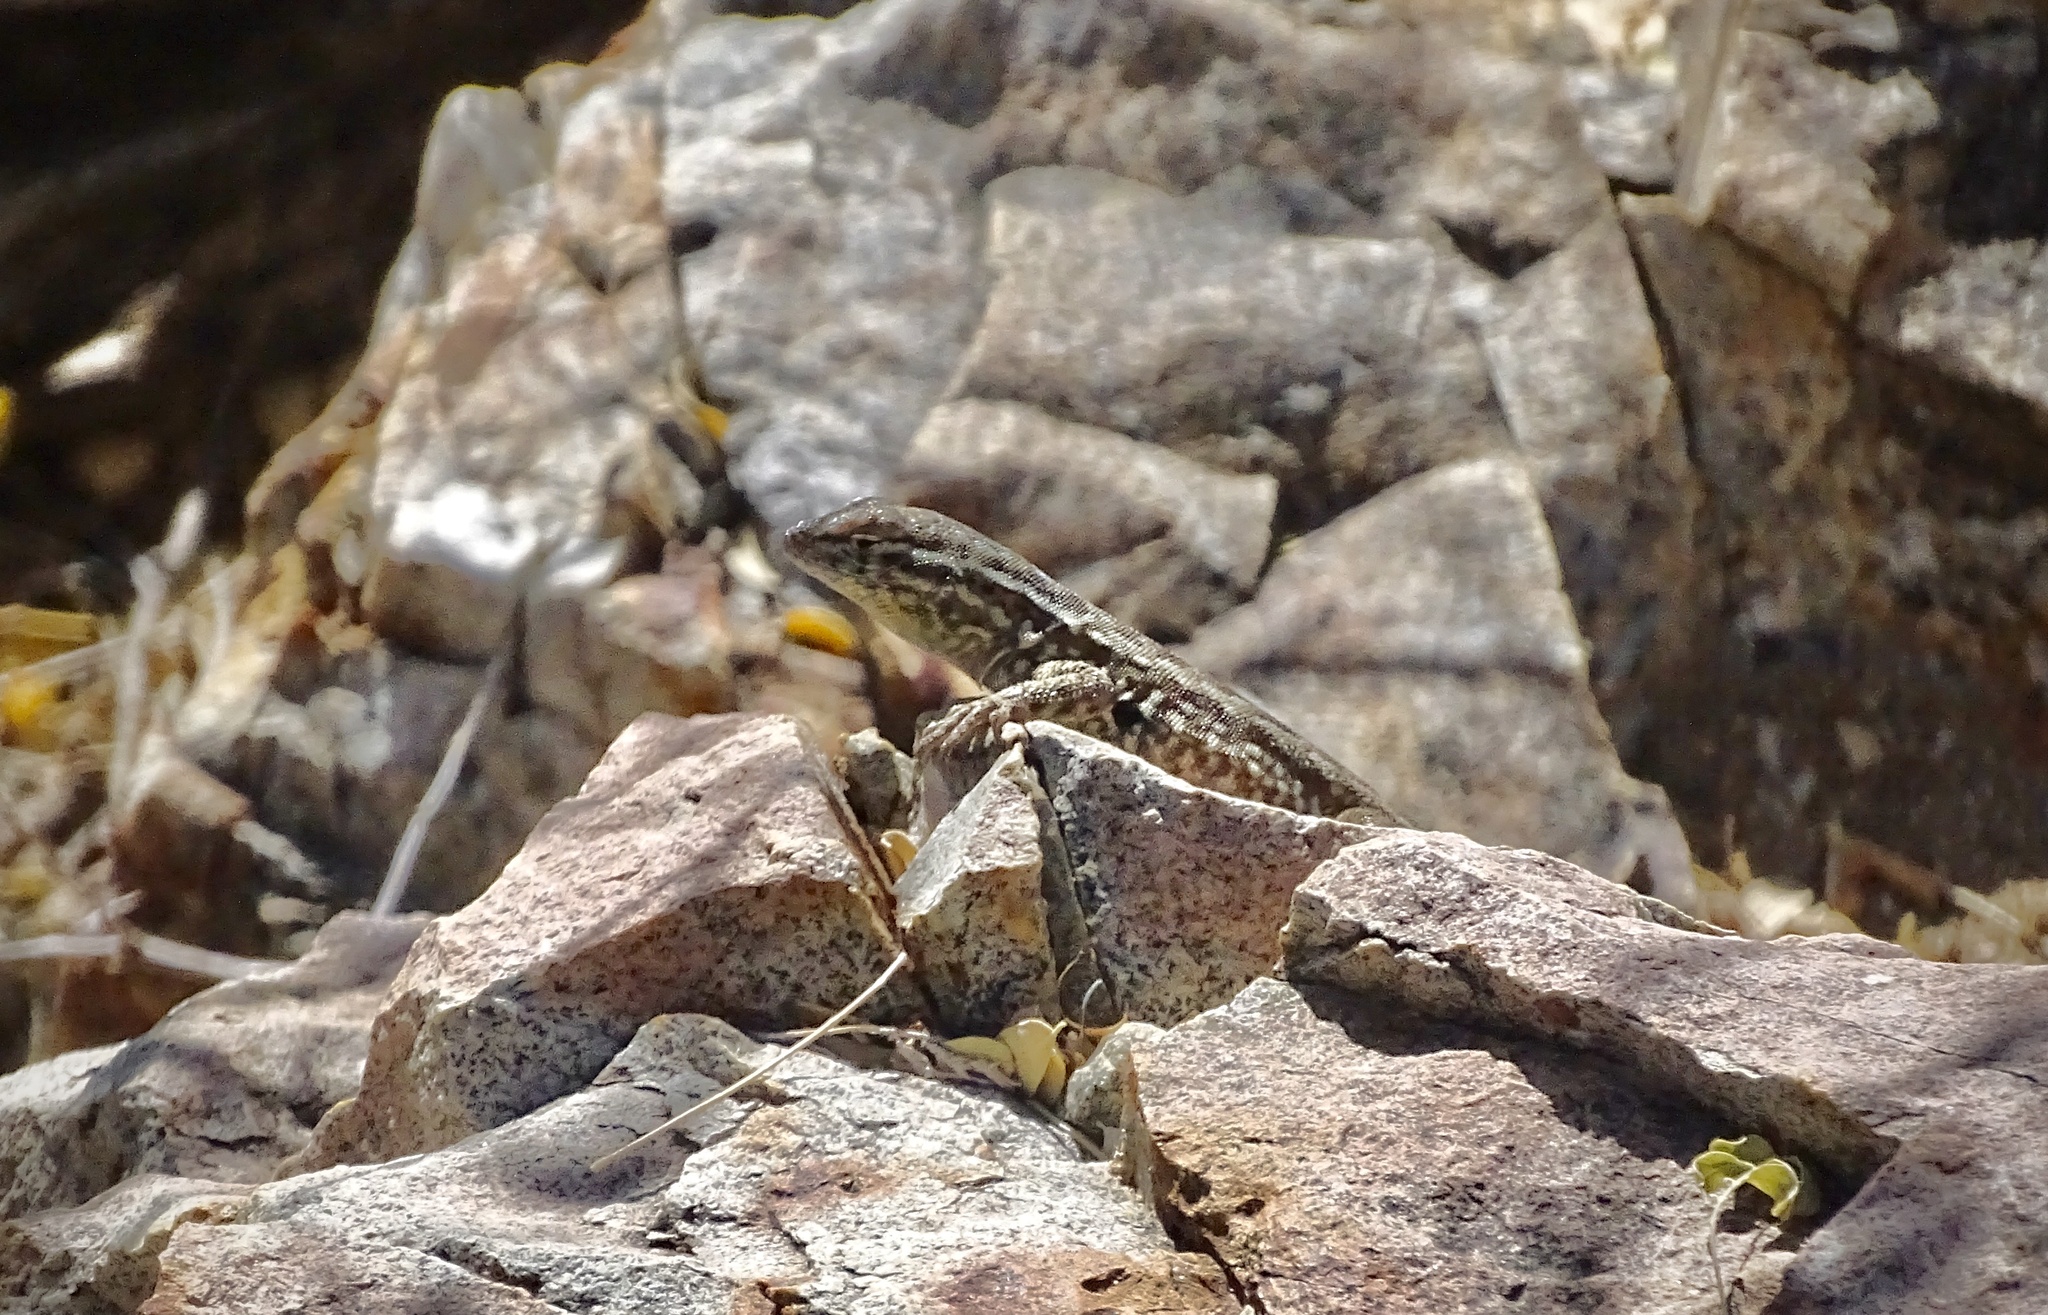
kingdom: Animalia
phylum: Chordata
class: Squamata
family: Phrynosomatidae
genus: Uta
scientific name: Uta stansburiana
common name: Side-blotched lizard
